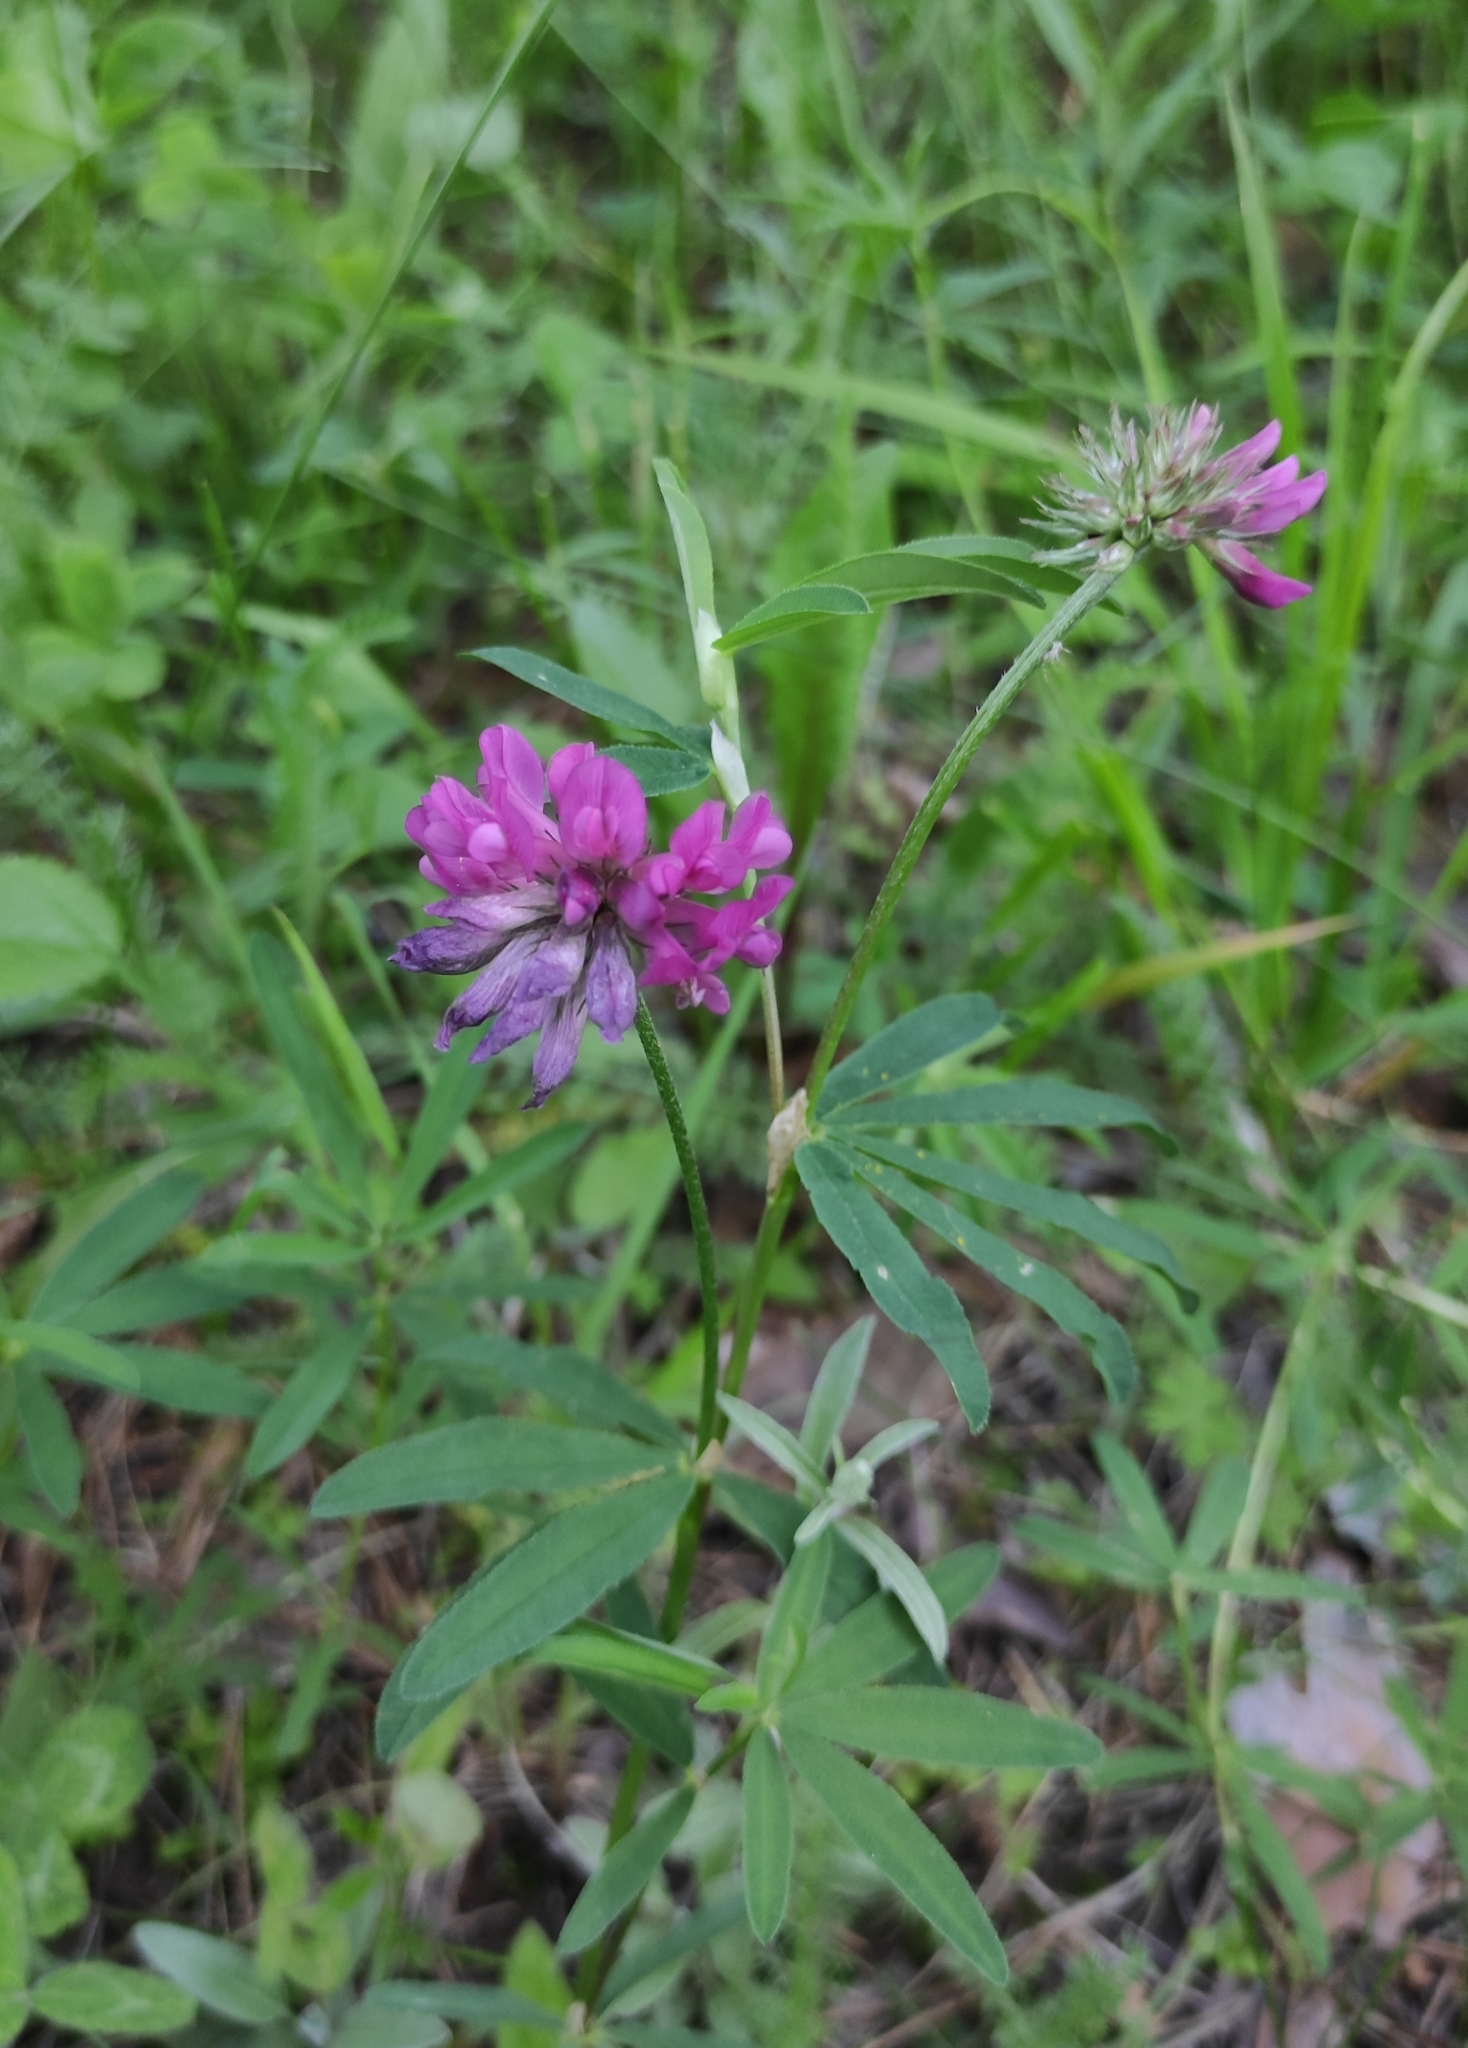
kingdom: Plantae
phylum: Tracheophyta
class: Magnoliopsida
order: Fabales
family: Fabaceae
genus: Trifolium
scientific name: Trifolium lupinaster
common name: Lupine clover
